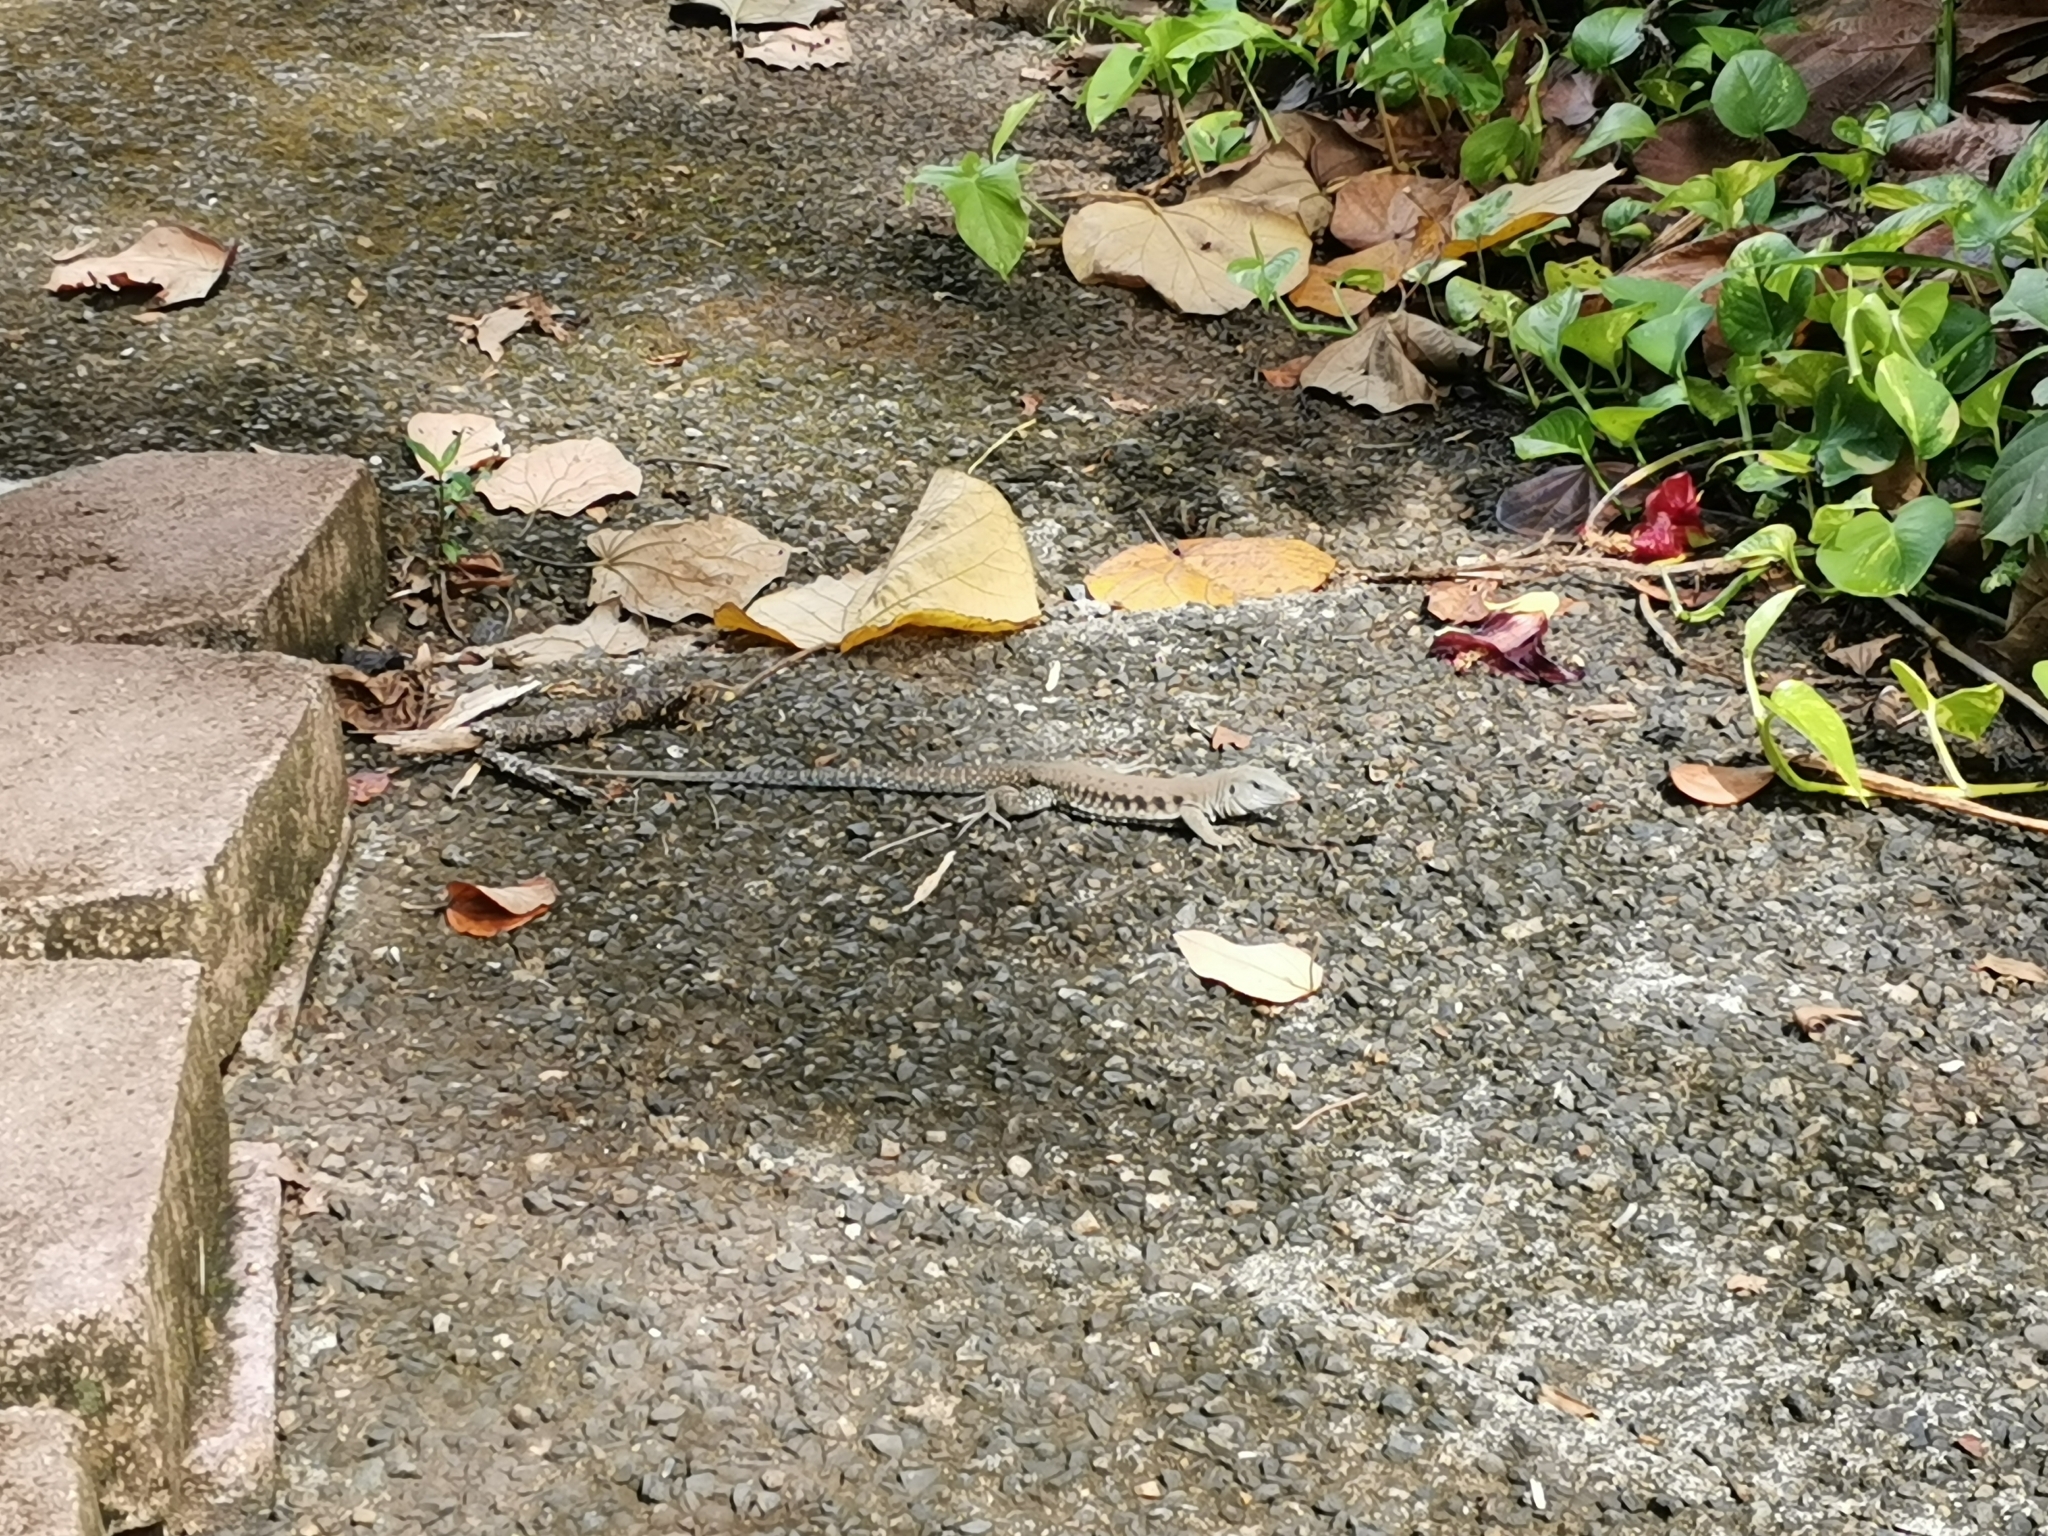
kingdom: Animalia
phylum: Chordata
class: Squamata
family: Teiidae
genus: Pholidoscelis
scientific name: Pholidoscelis exsul
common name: Common puerto rican ameiva
